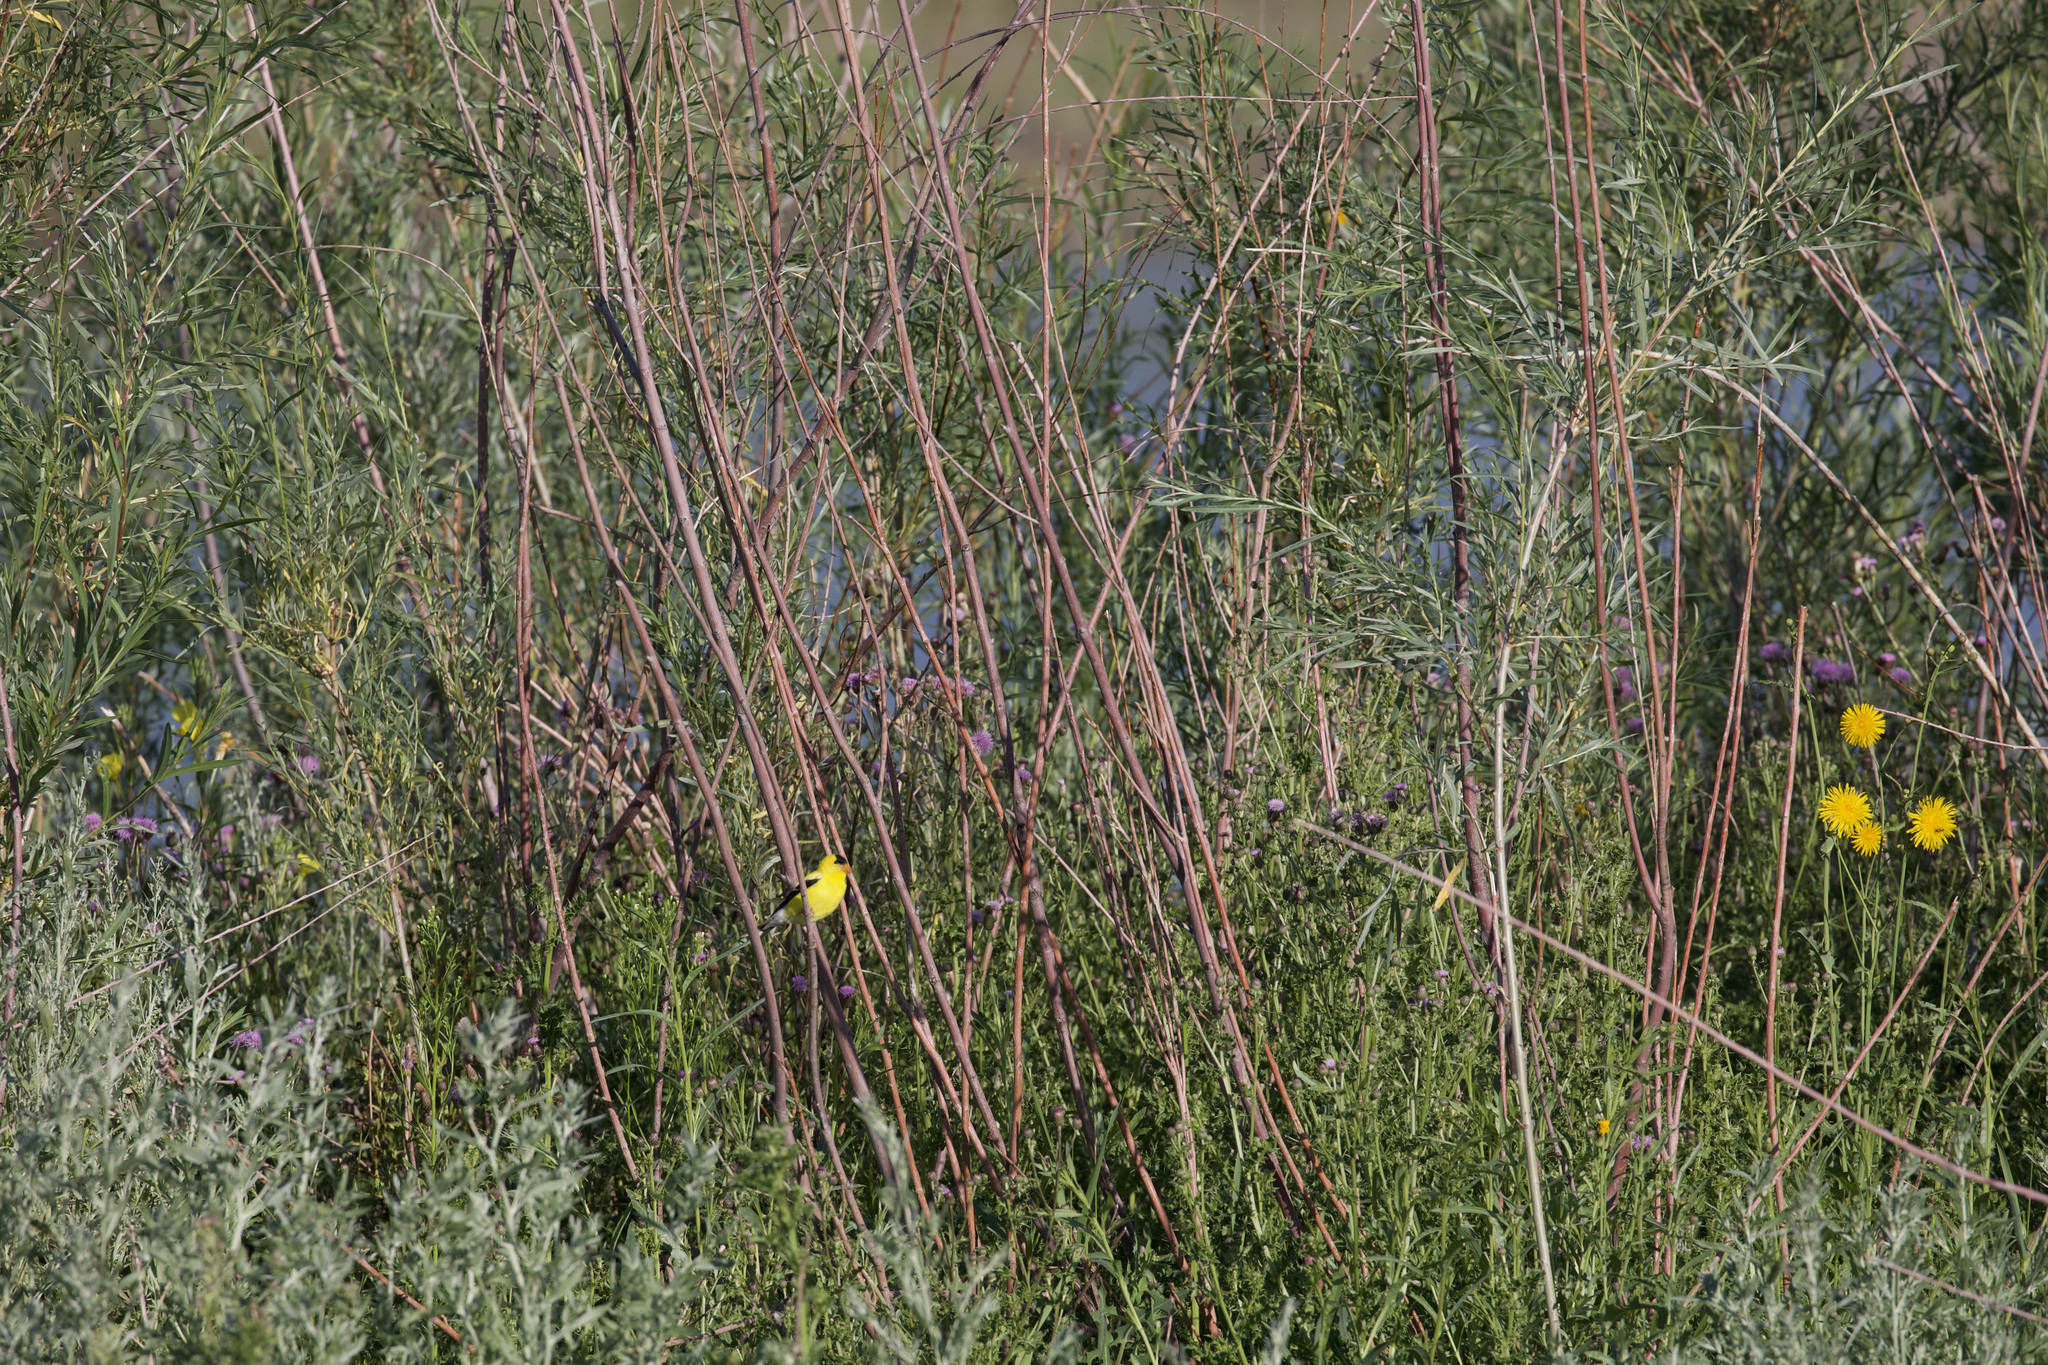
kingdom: Animalia
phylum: Chordata
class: Aves
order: Passeriformes
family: Fringillidae
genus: Spinus
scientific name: Spinus tristis
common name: American goldfinch
